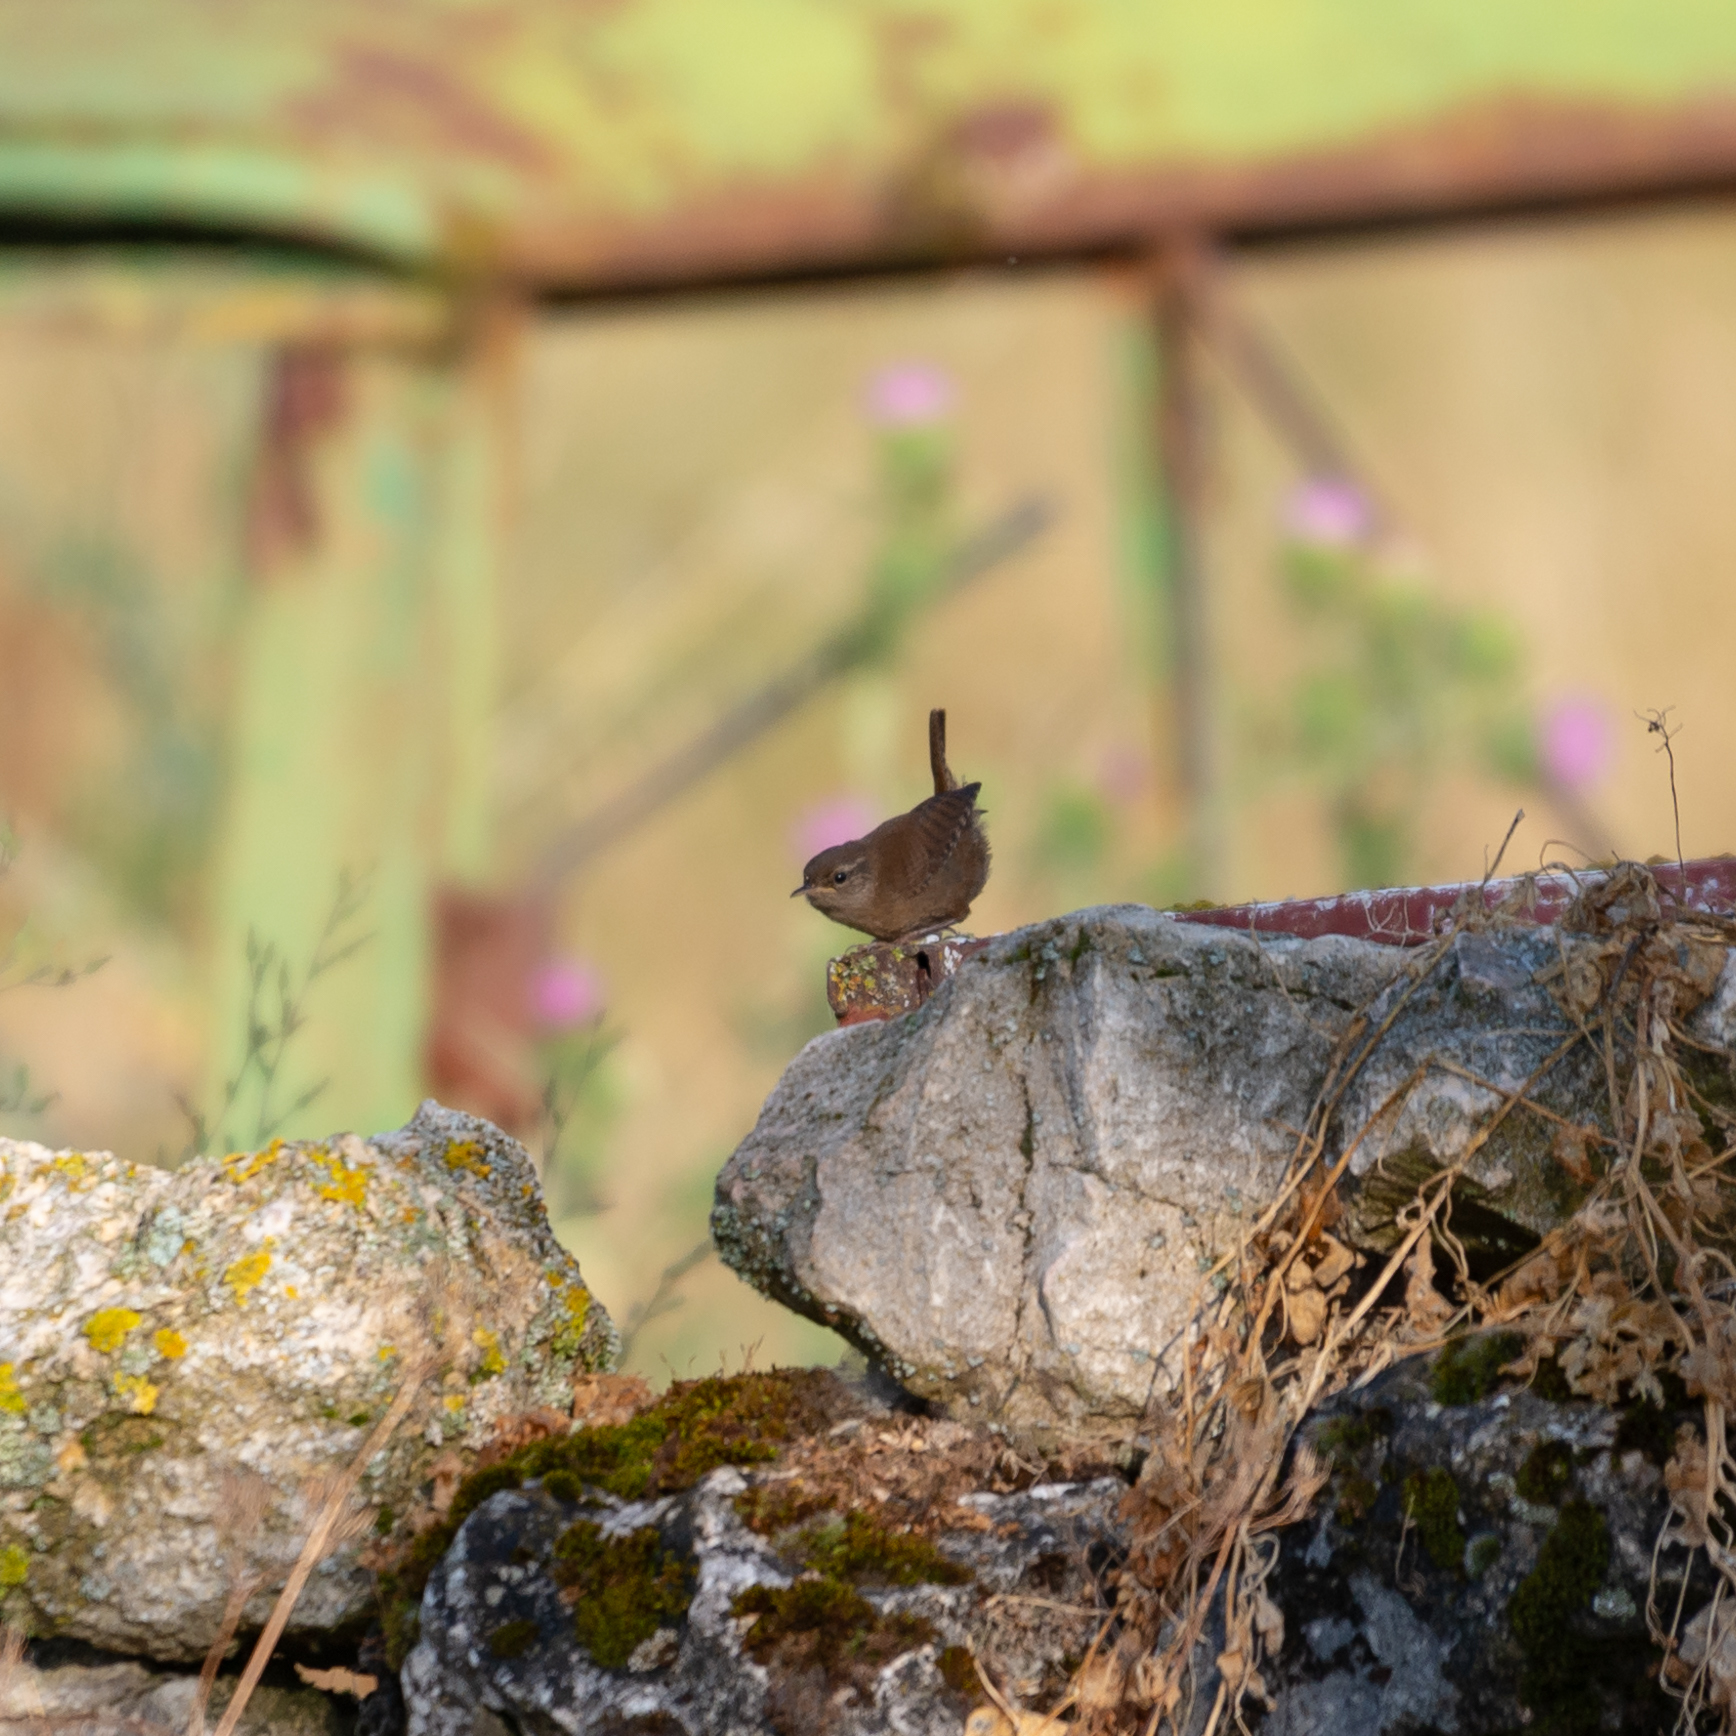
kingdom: Animalia
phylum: Chordata
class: Aves
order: Passeriformes
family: Troglodytidae
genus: Troglodytes
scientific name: Troglodytes troglodytes
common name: Eurasian wren
